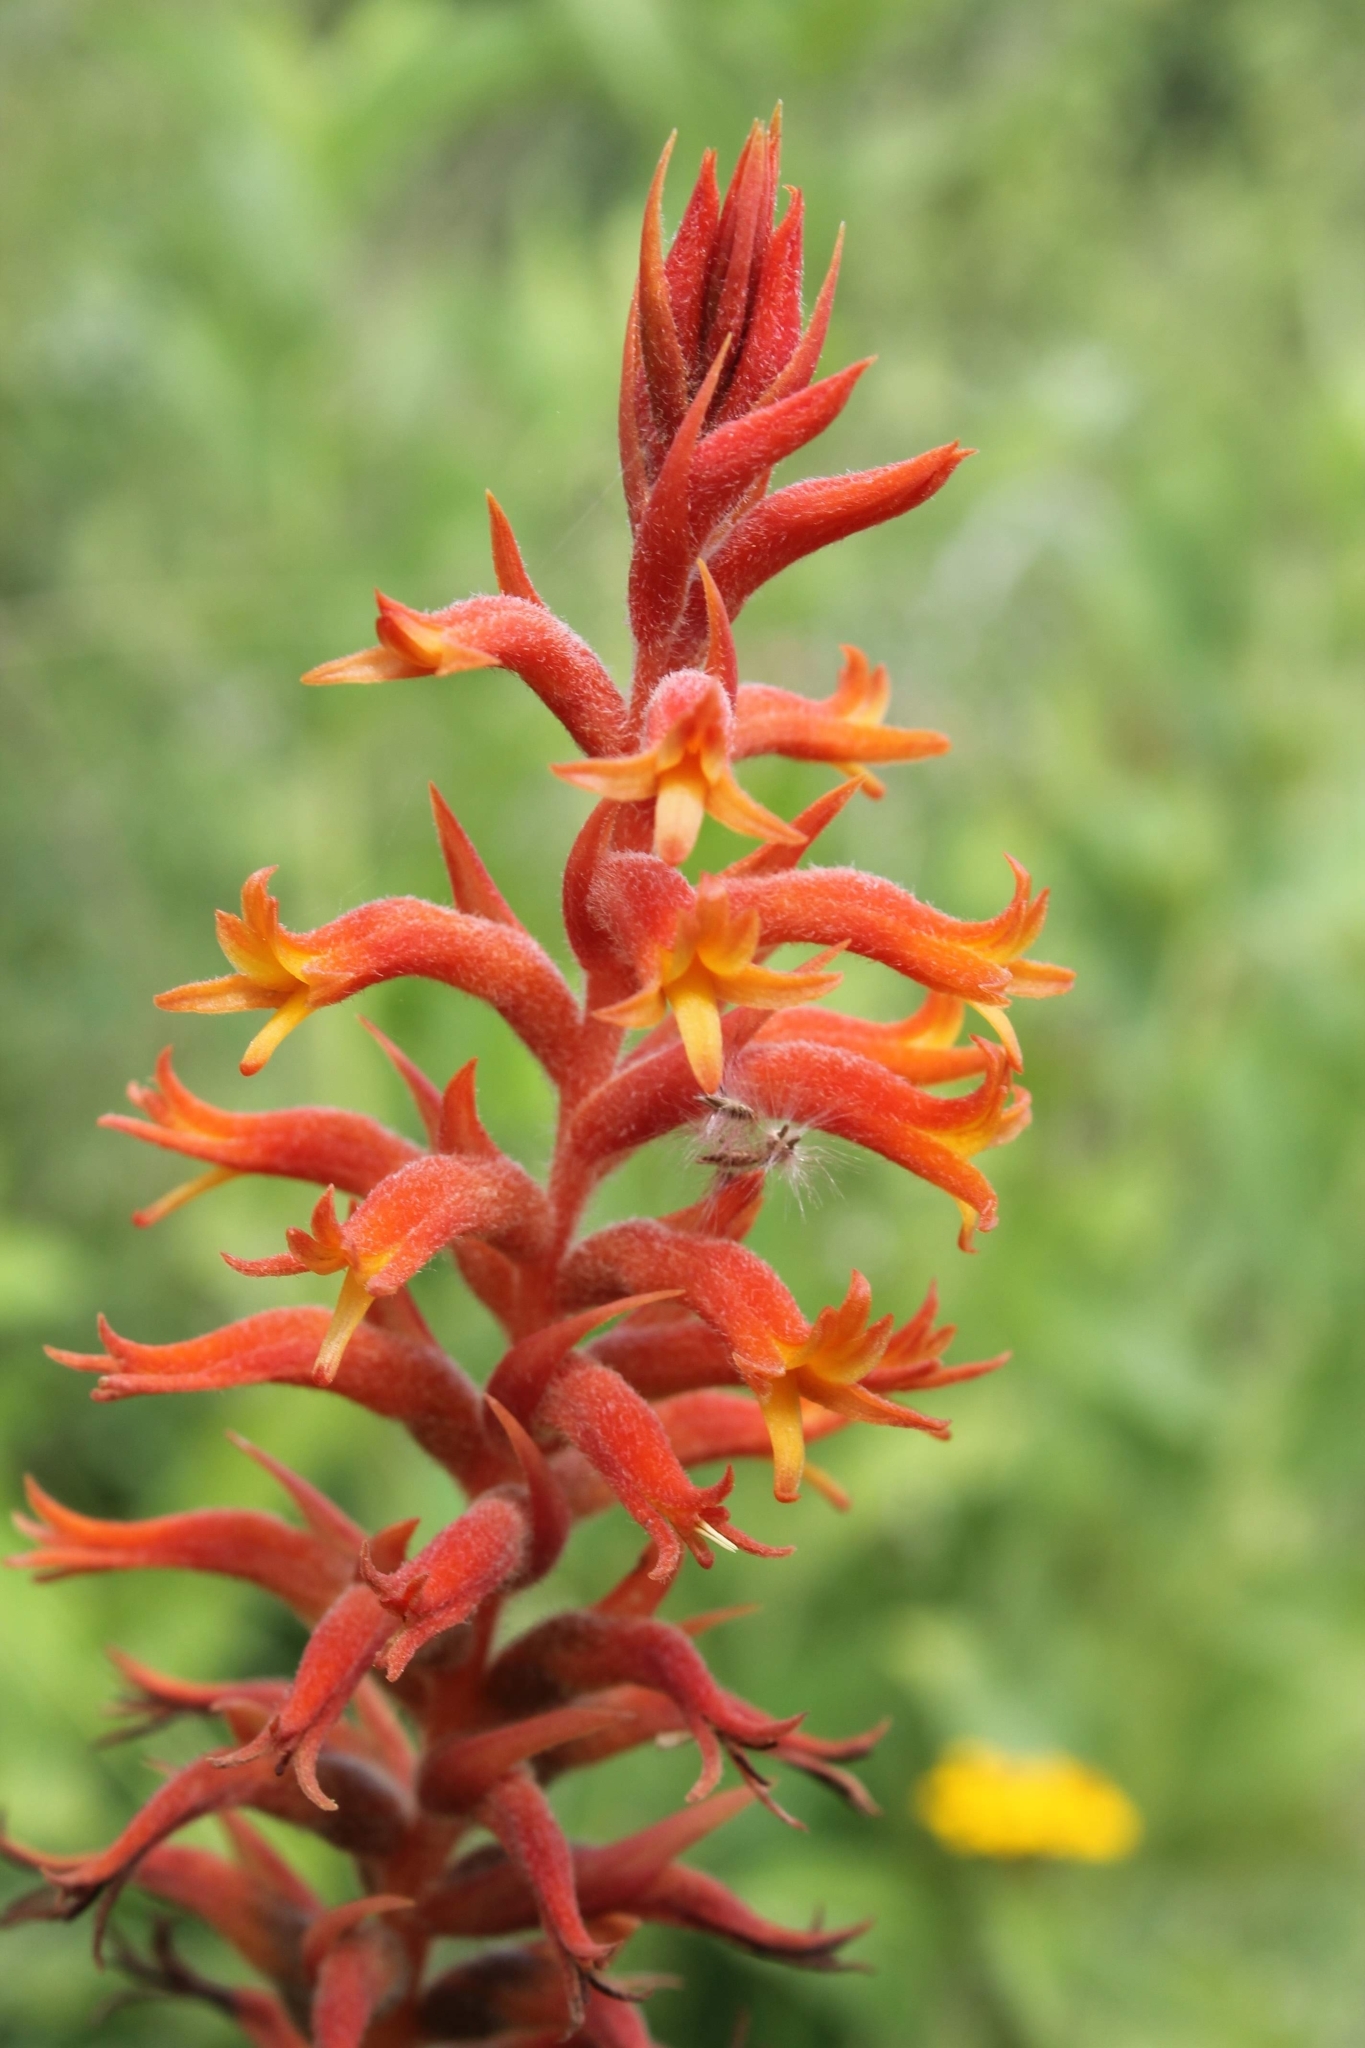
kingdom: Plantae
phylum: Tracheophyta
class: Liliopsida
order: Asparagales
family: Orchidaceae
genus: Dichromanthus
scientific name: Dichromanthus cinnabarinus
